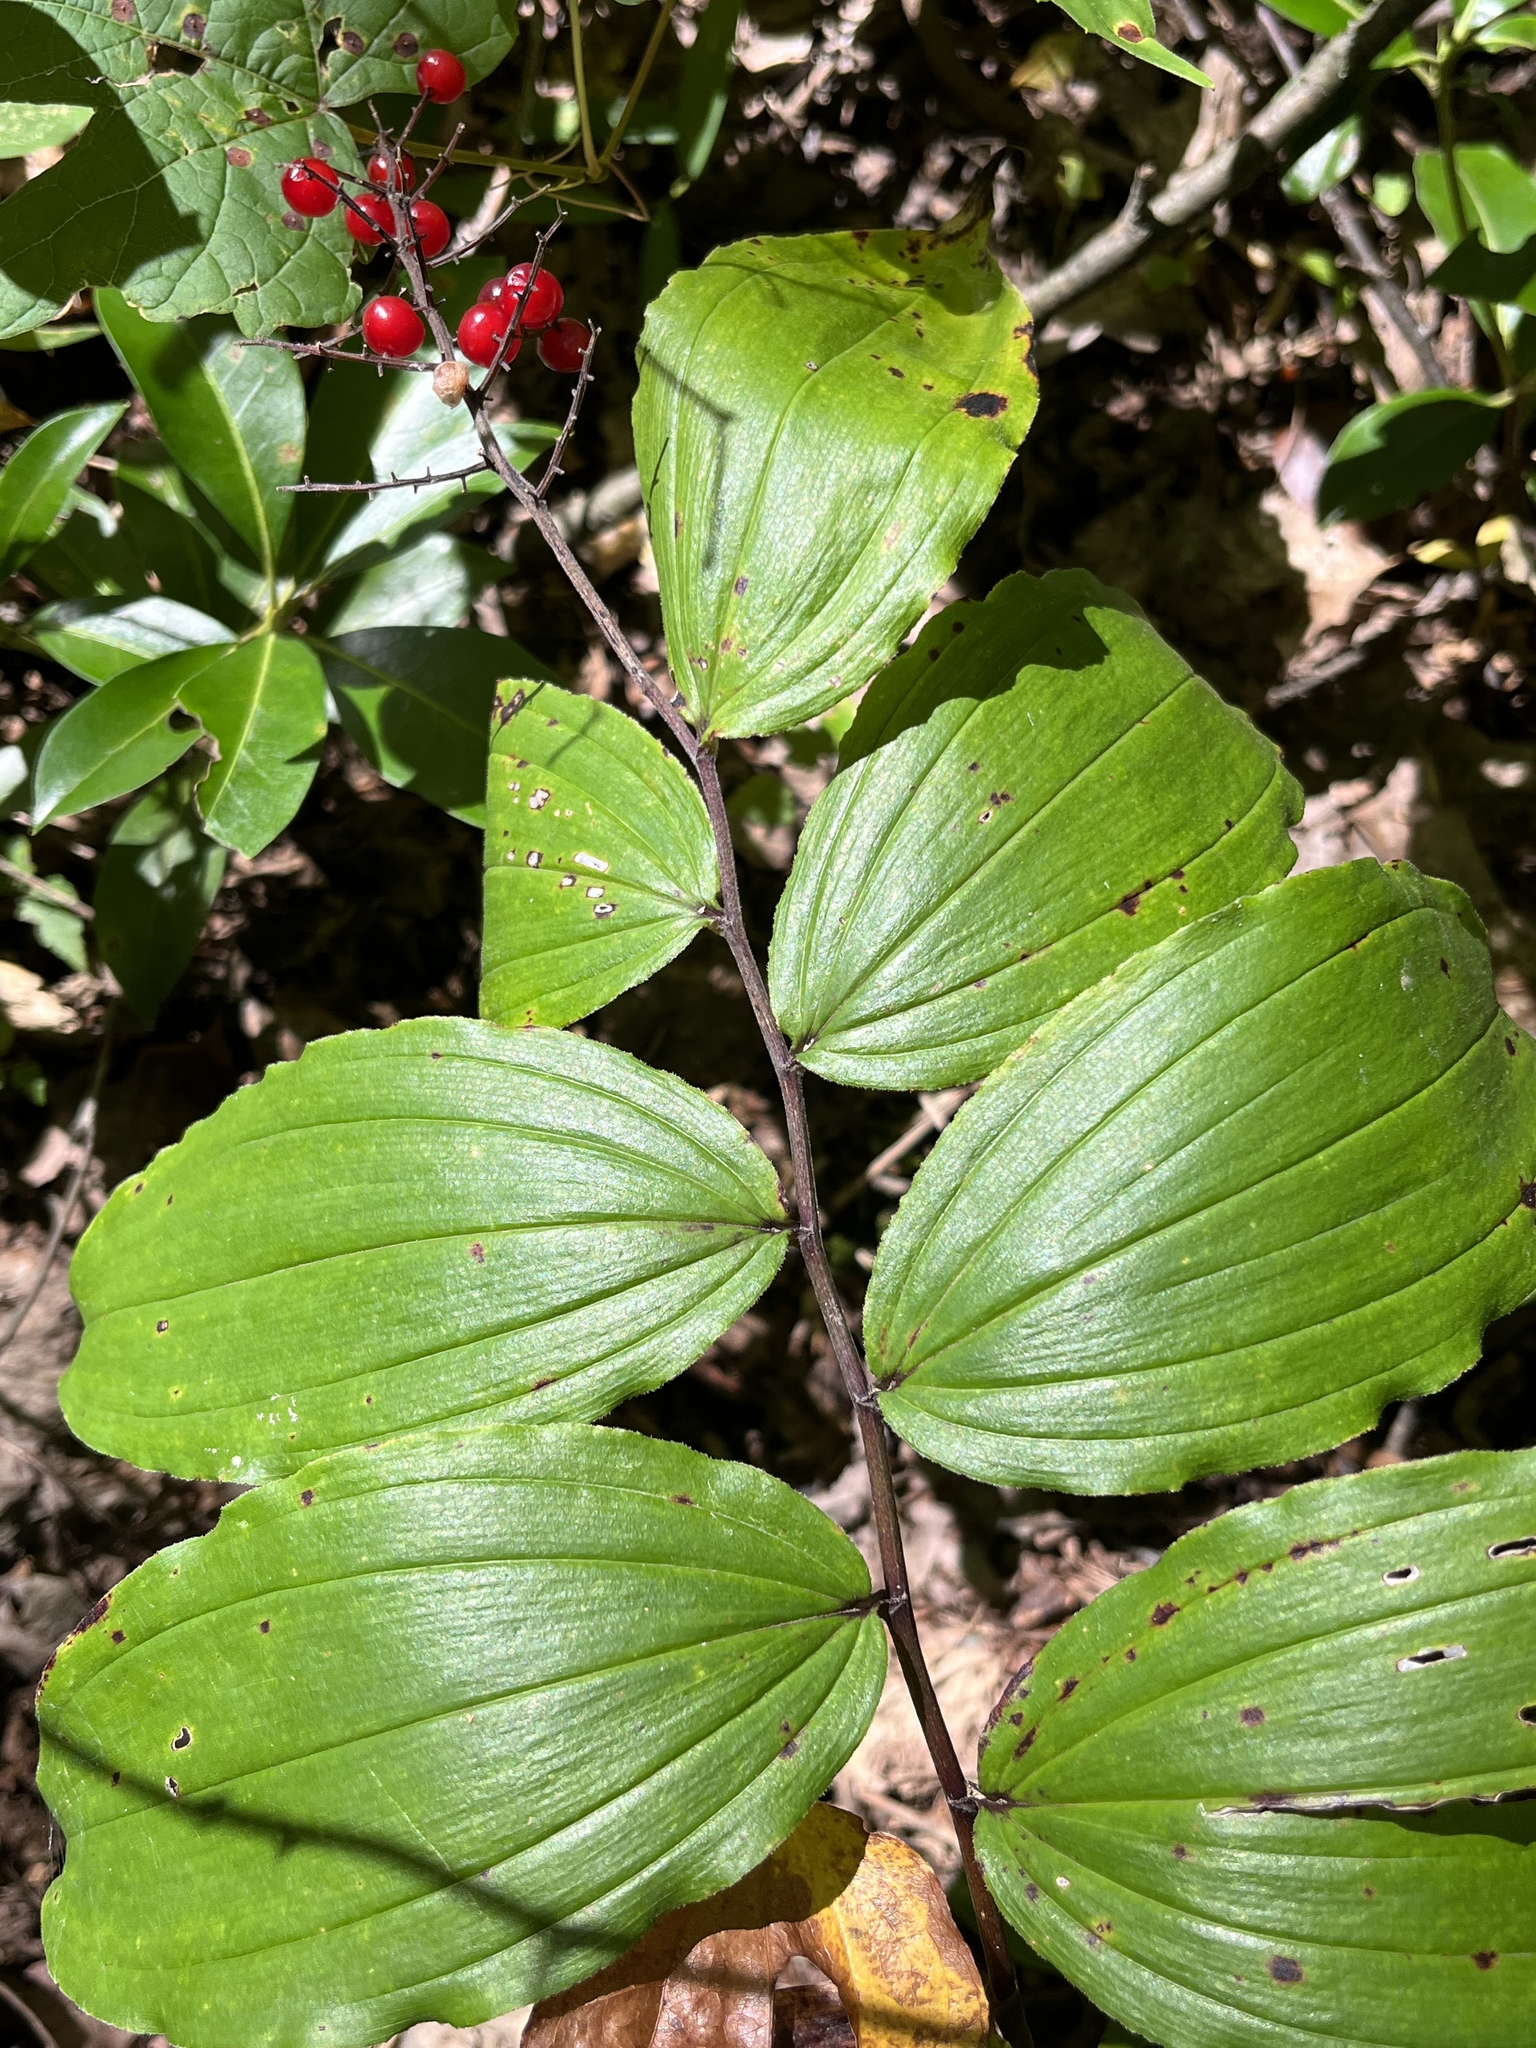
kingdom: Plantae
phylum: Tracheophyta
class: Liliopsida
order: Asparagales
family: Asparagaceae
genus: Maianthemum
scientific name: Maianthemum racemosum
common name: False spikenard
